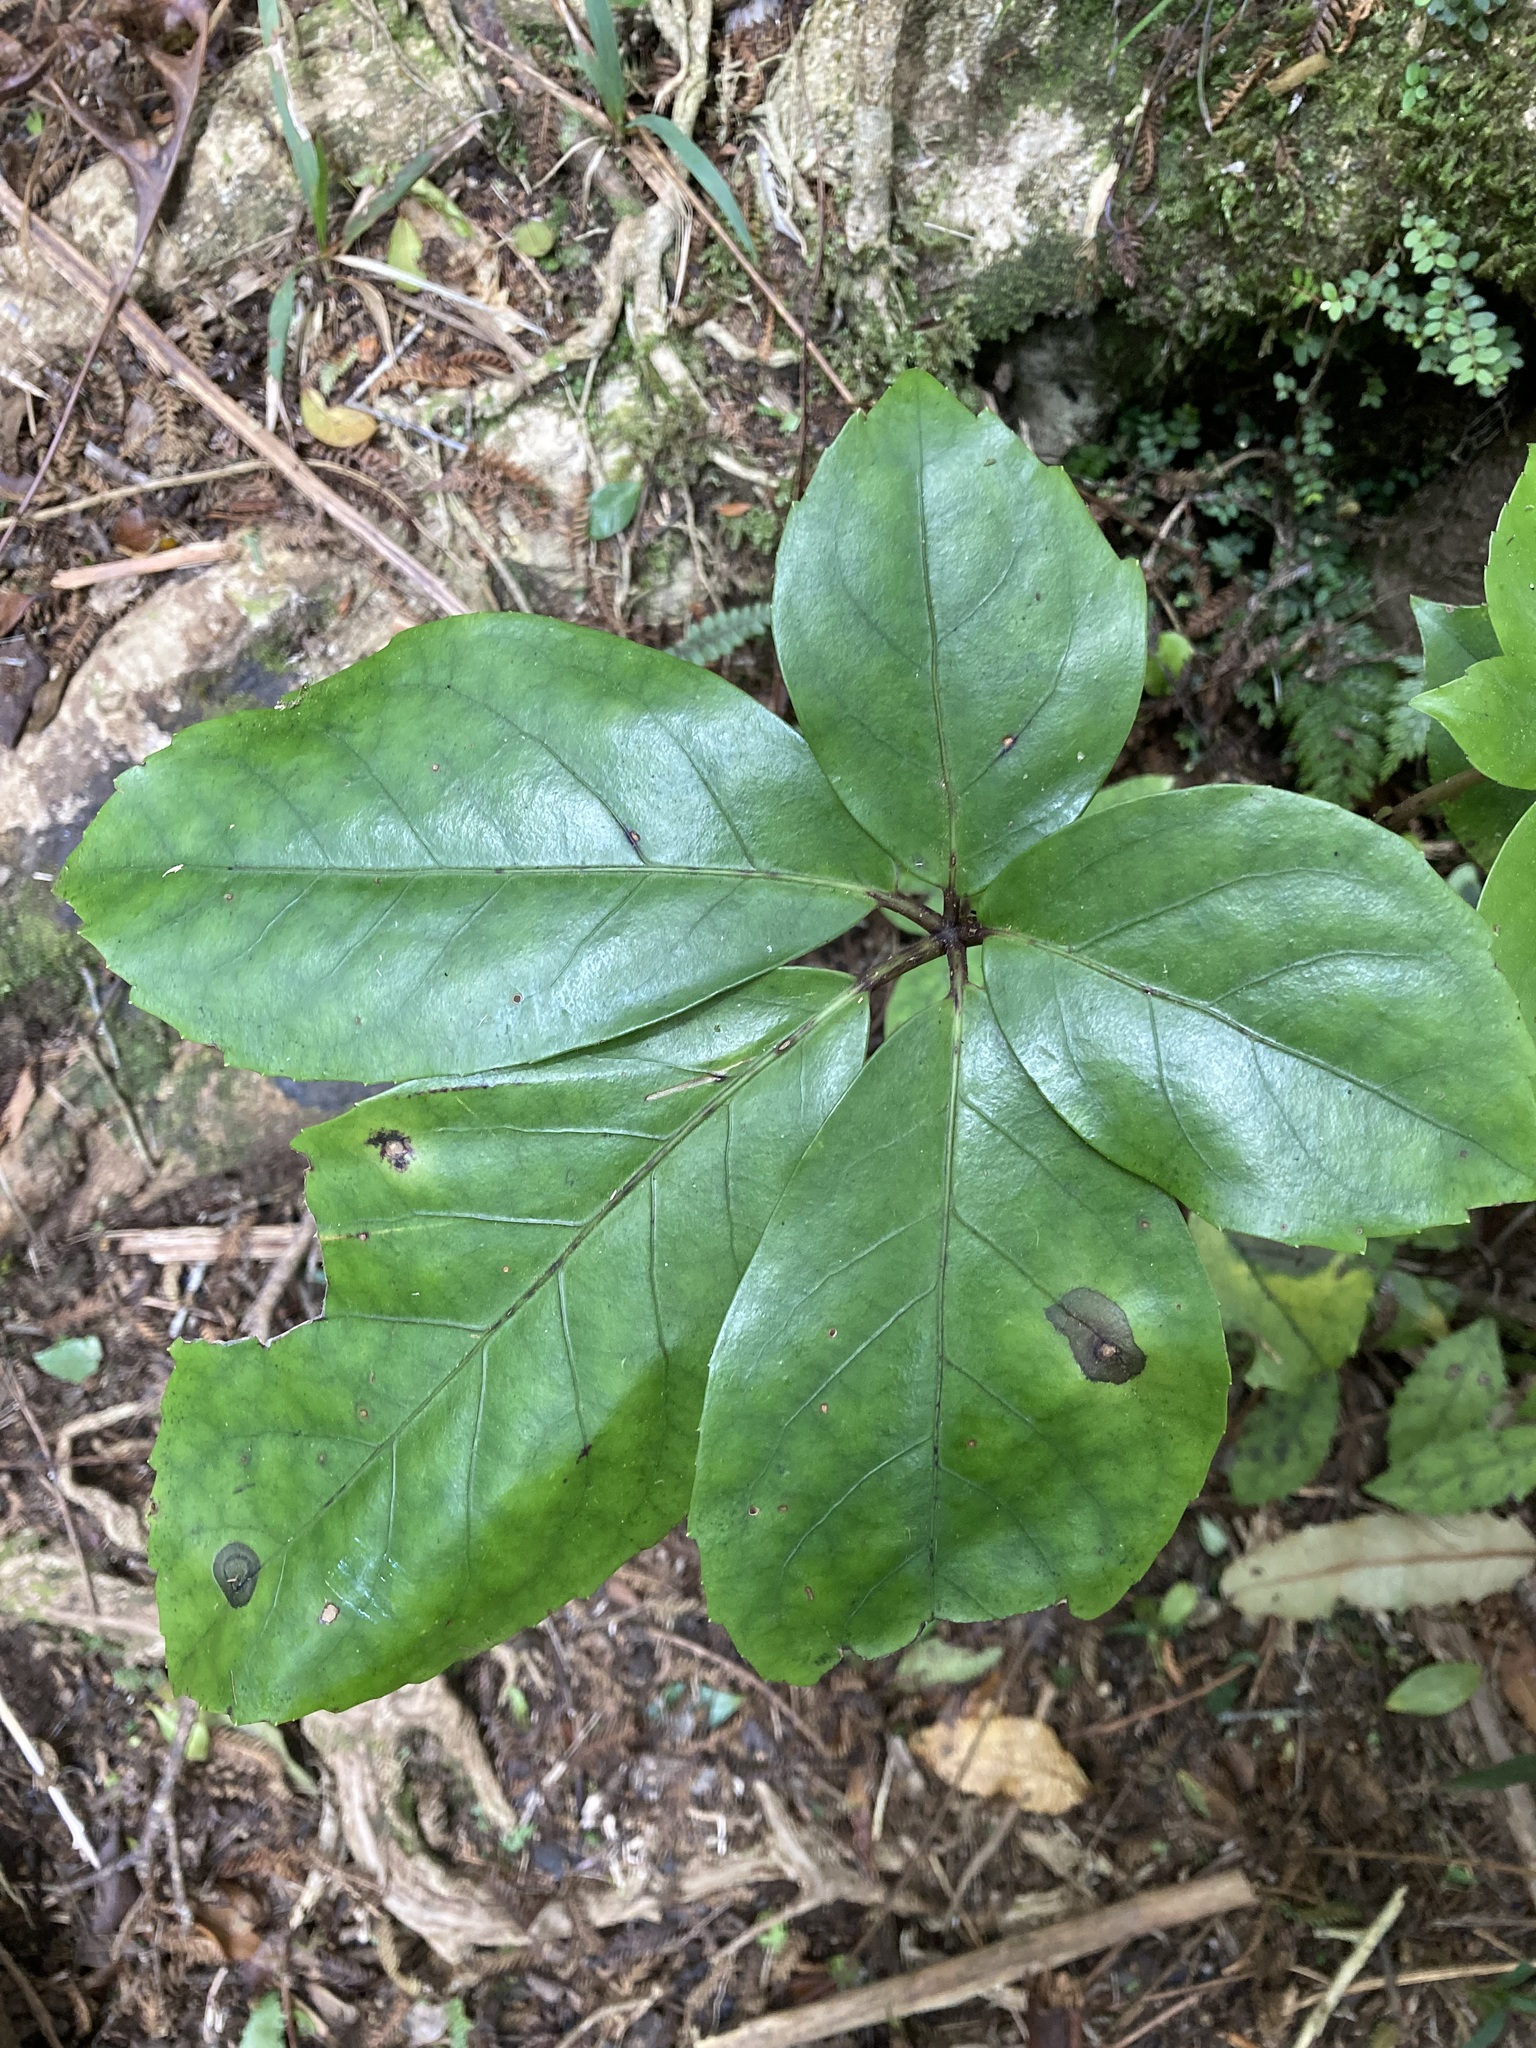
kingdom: Plantae
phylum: Tracheophyta
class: Magnoliopsida
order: Apiales
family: Araliaceae
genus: Neopanax
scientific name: Neopanax laetus
